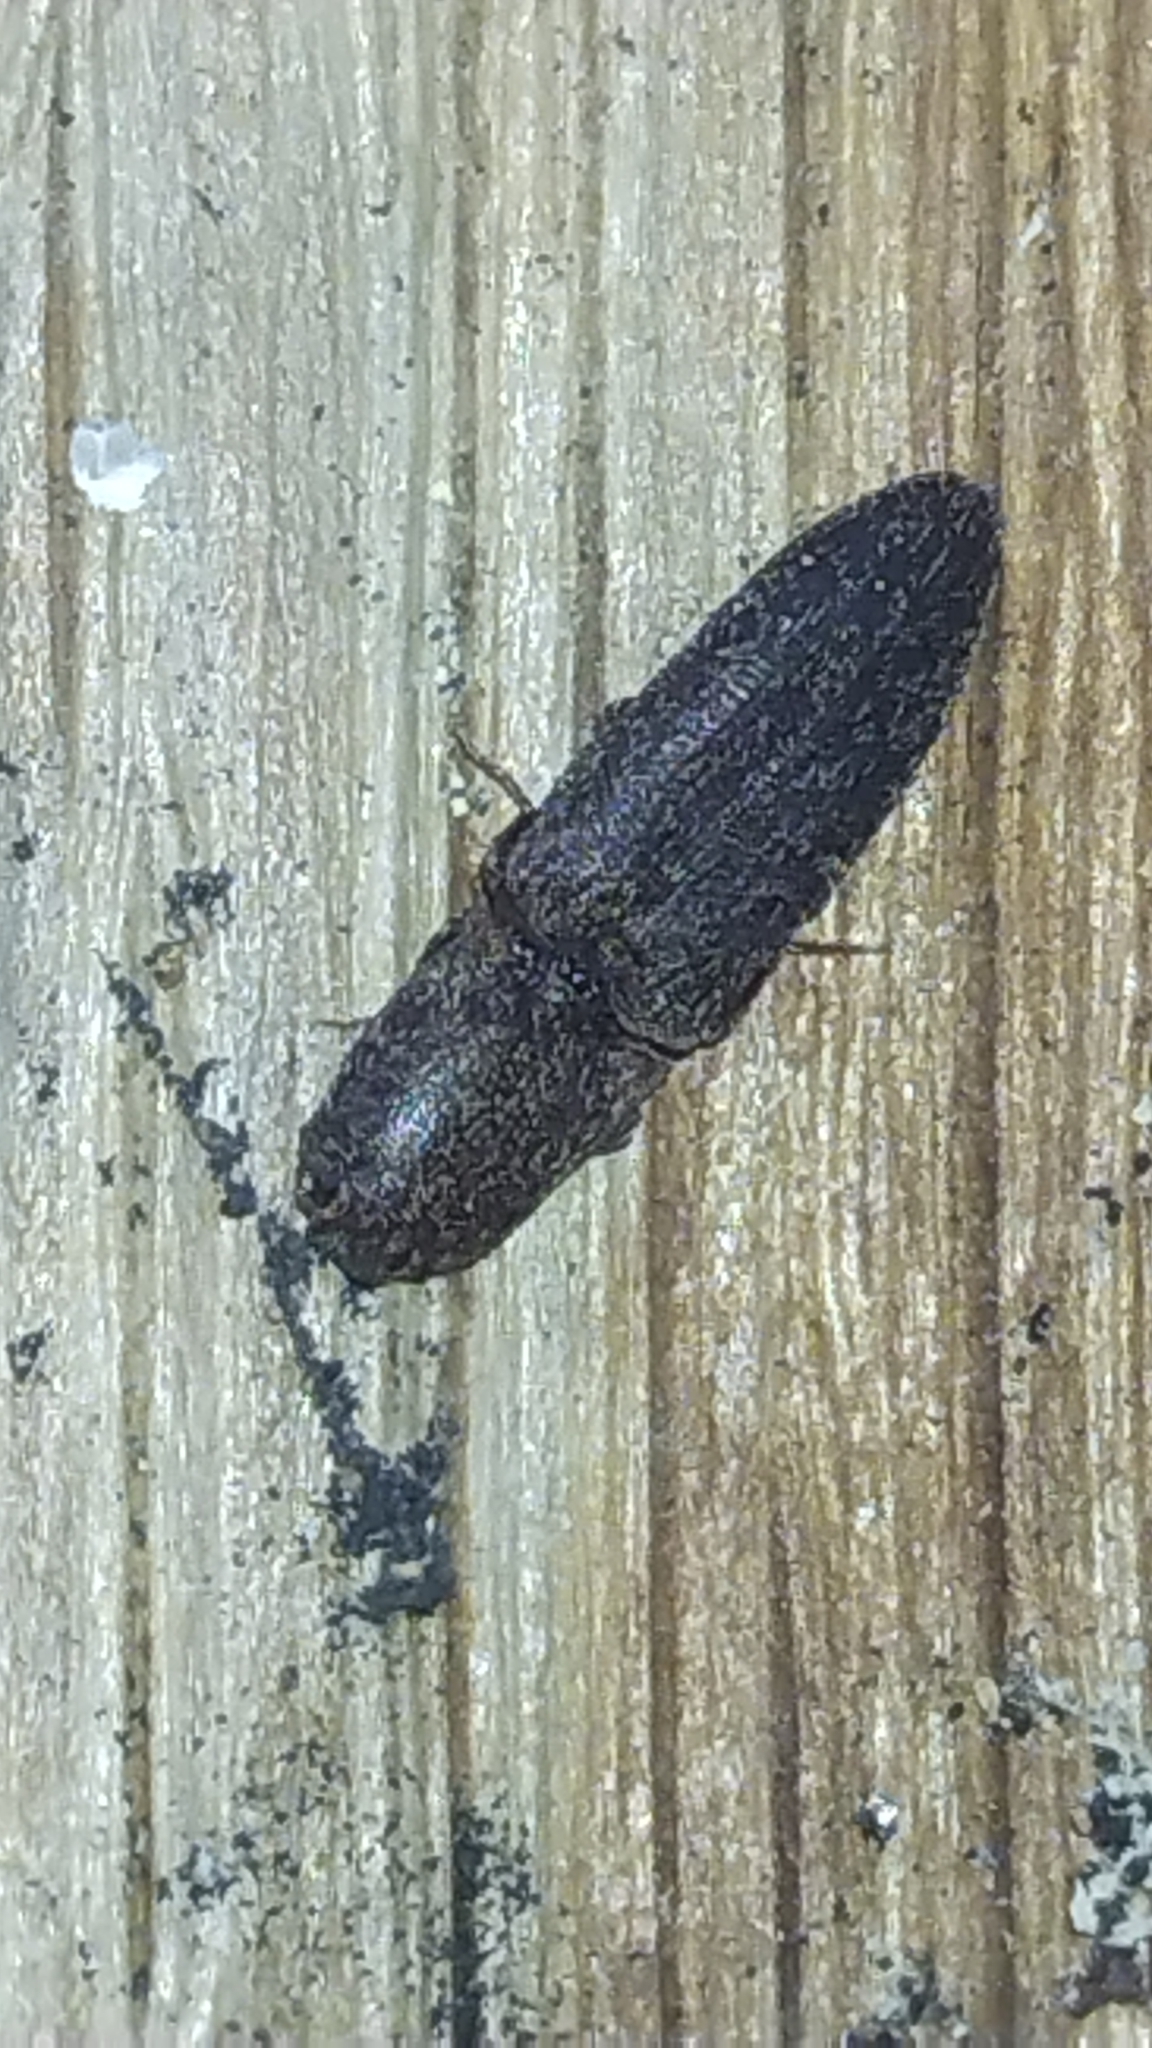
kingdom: Animalia
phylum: Arthropoda
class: Insecta
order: Coleoptera
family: Elateridae
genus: Lacon
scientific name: Lacon impressicollis
